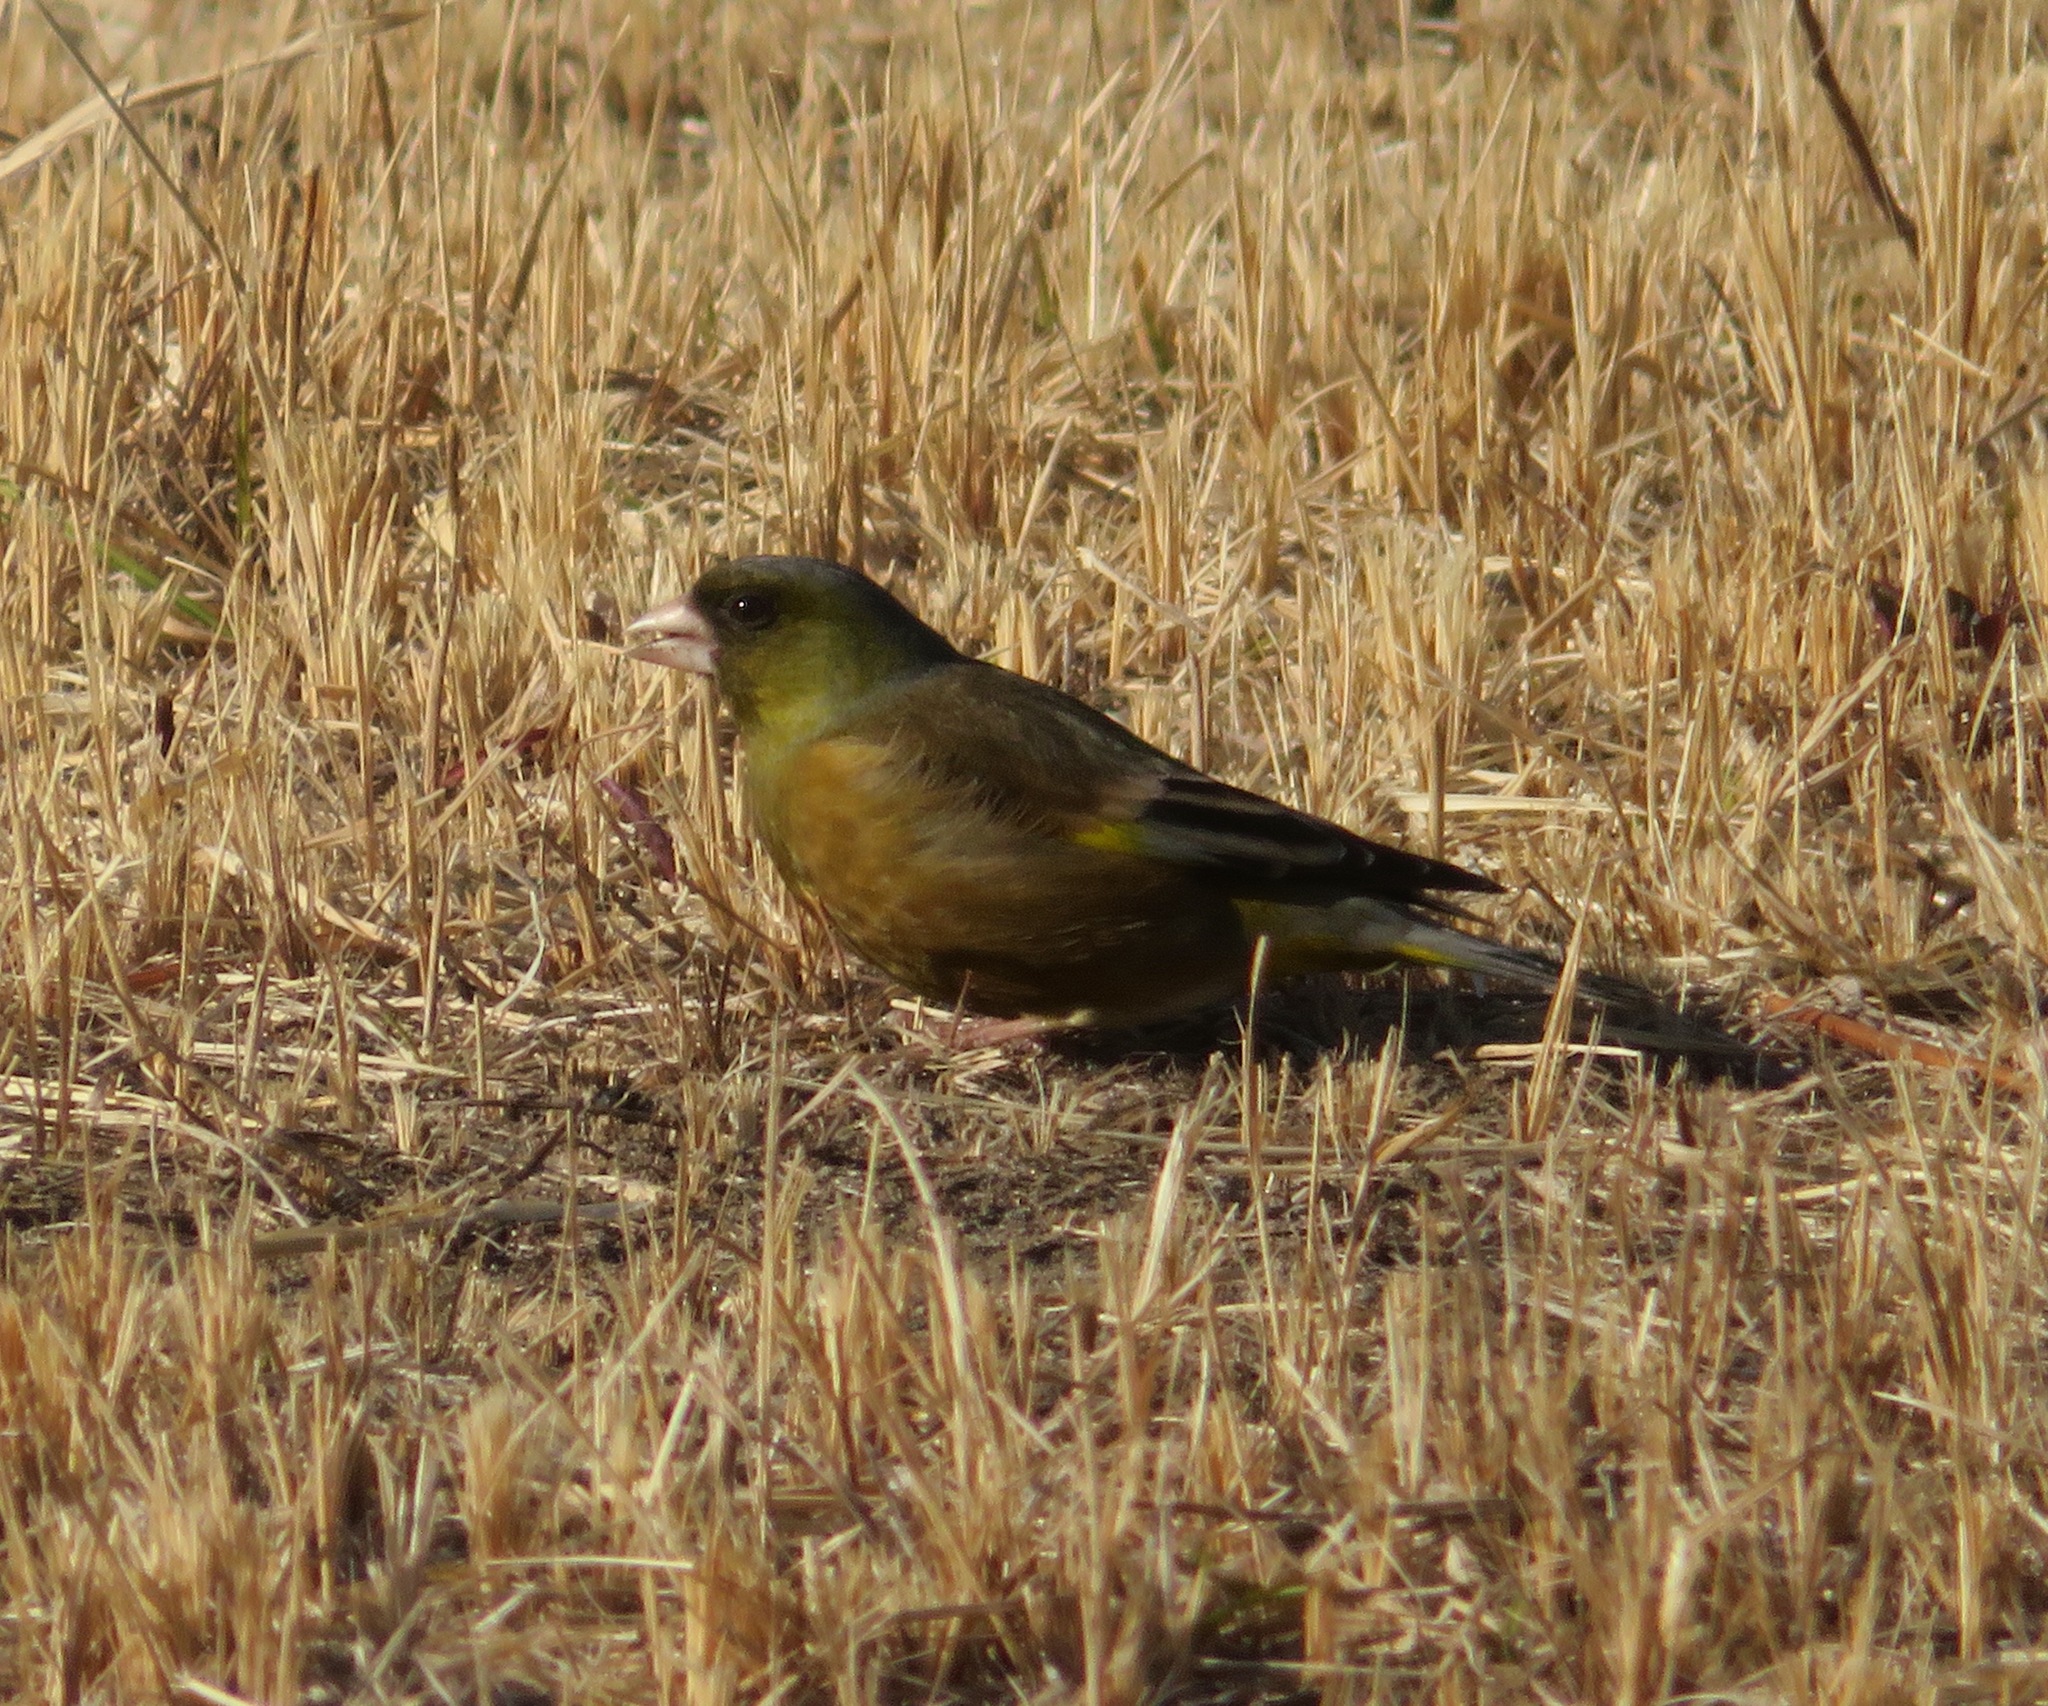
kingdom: Plantae
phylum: Tracheophyta
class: Liliopsida
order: Poales
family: Poaceae
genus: Chloris
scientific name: Chloris sinica
